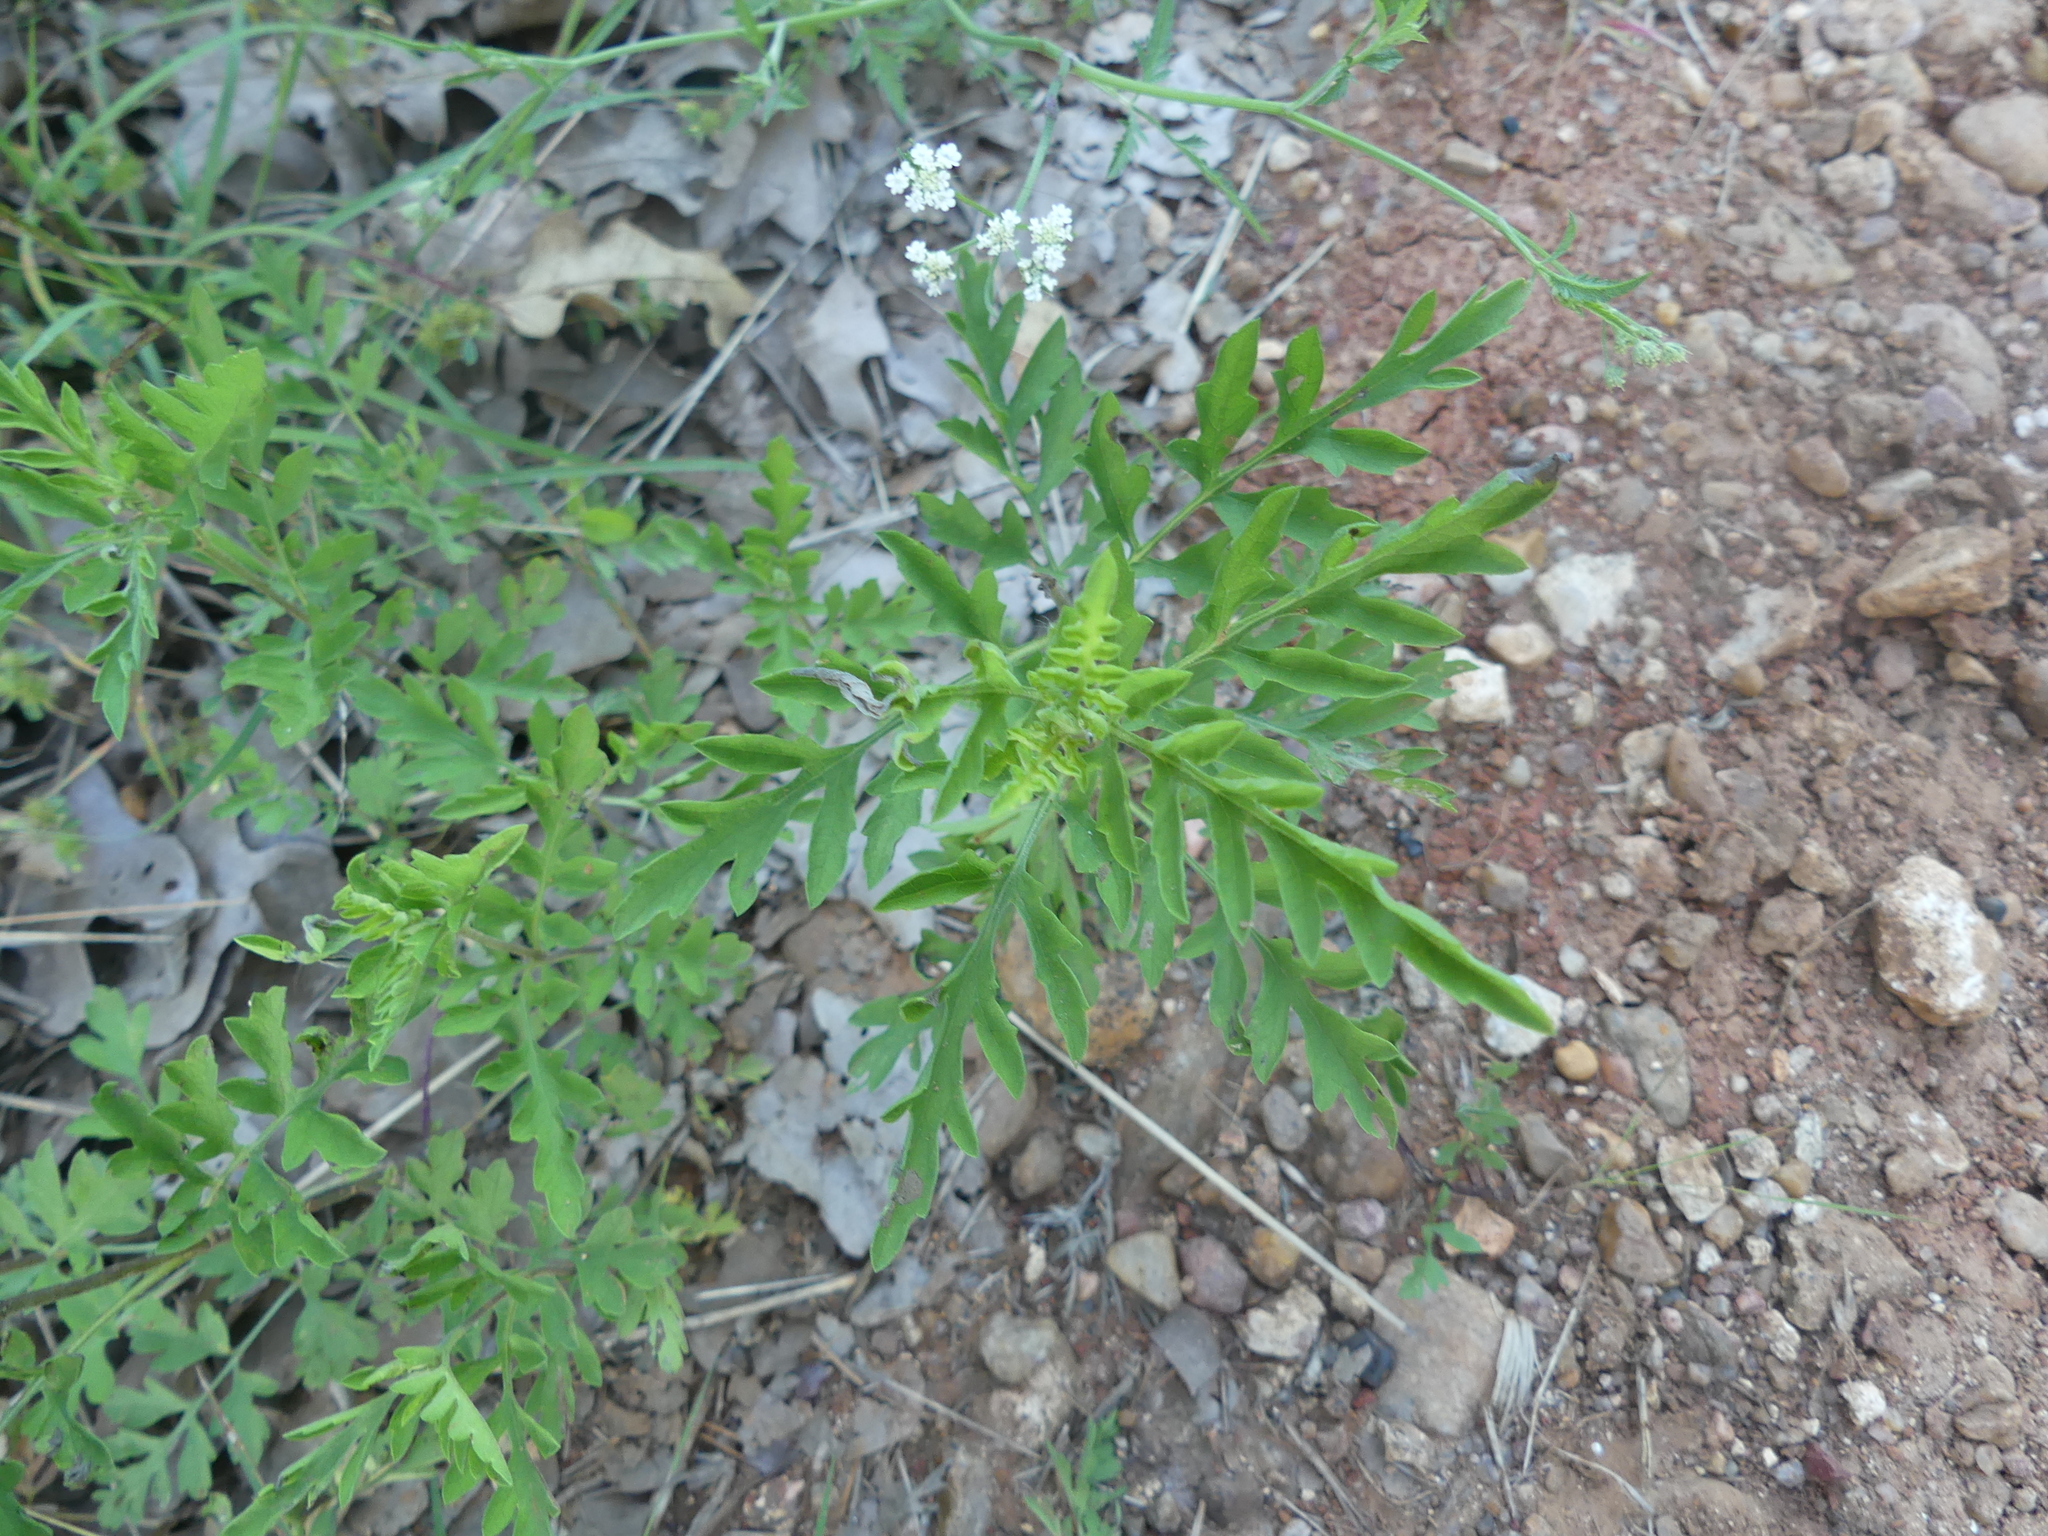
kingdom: Plantae
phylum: Tracheophyta
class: Magnoliopsida
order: Asterales
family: Asteraceae
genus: Ambrosia
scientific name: Ambrosia artemisiifolia
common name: Annual ragweed
